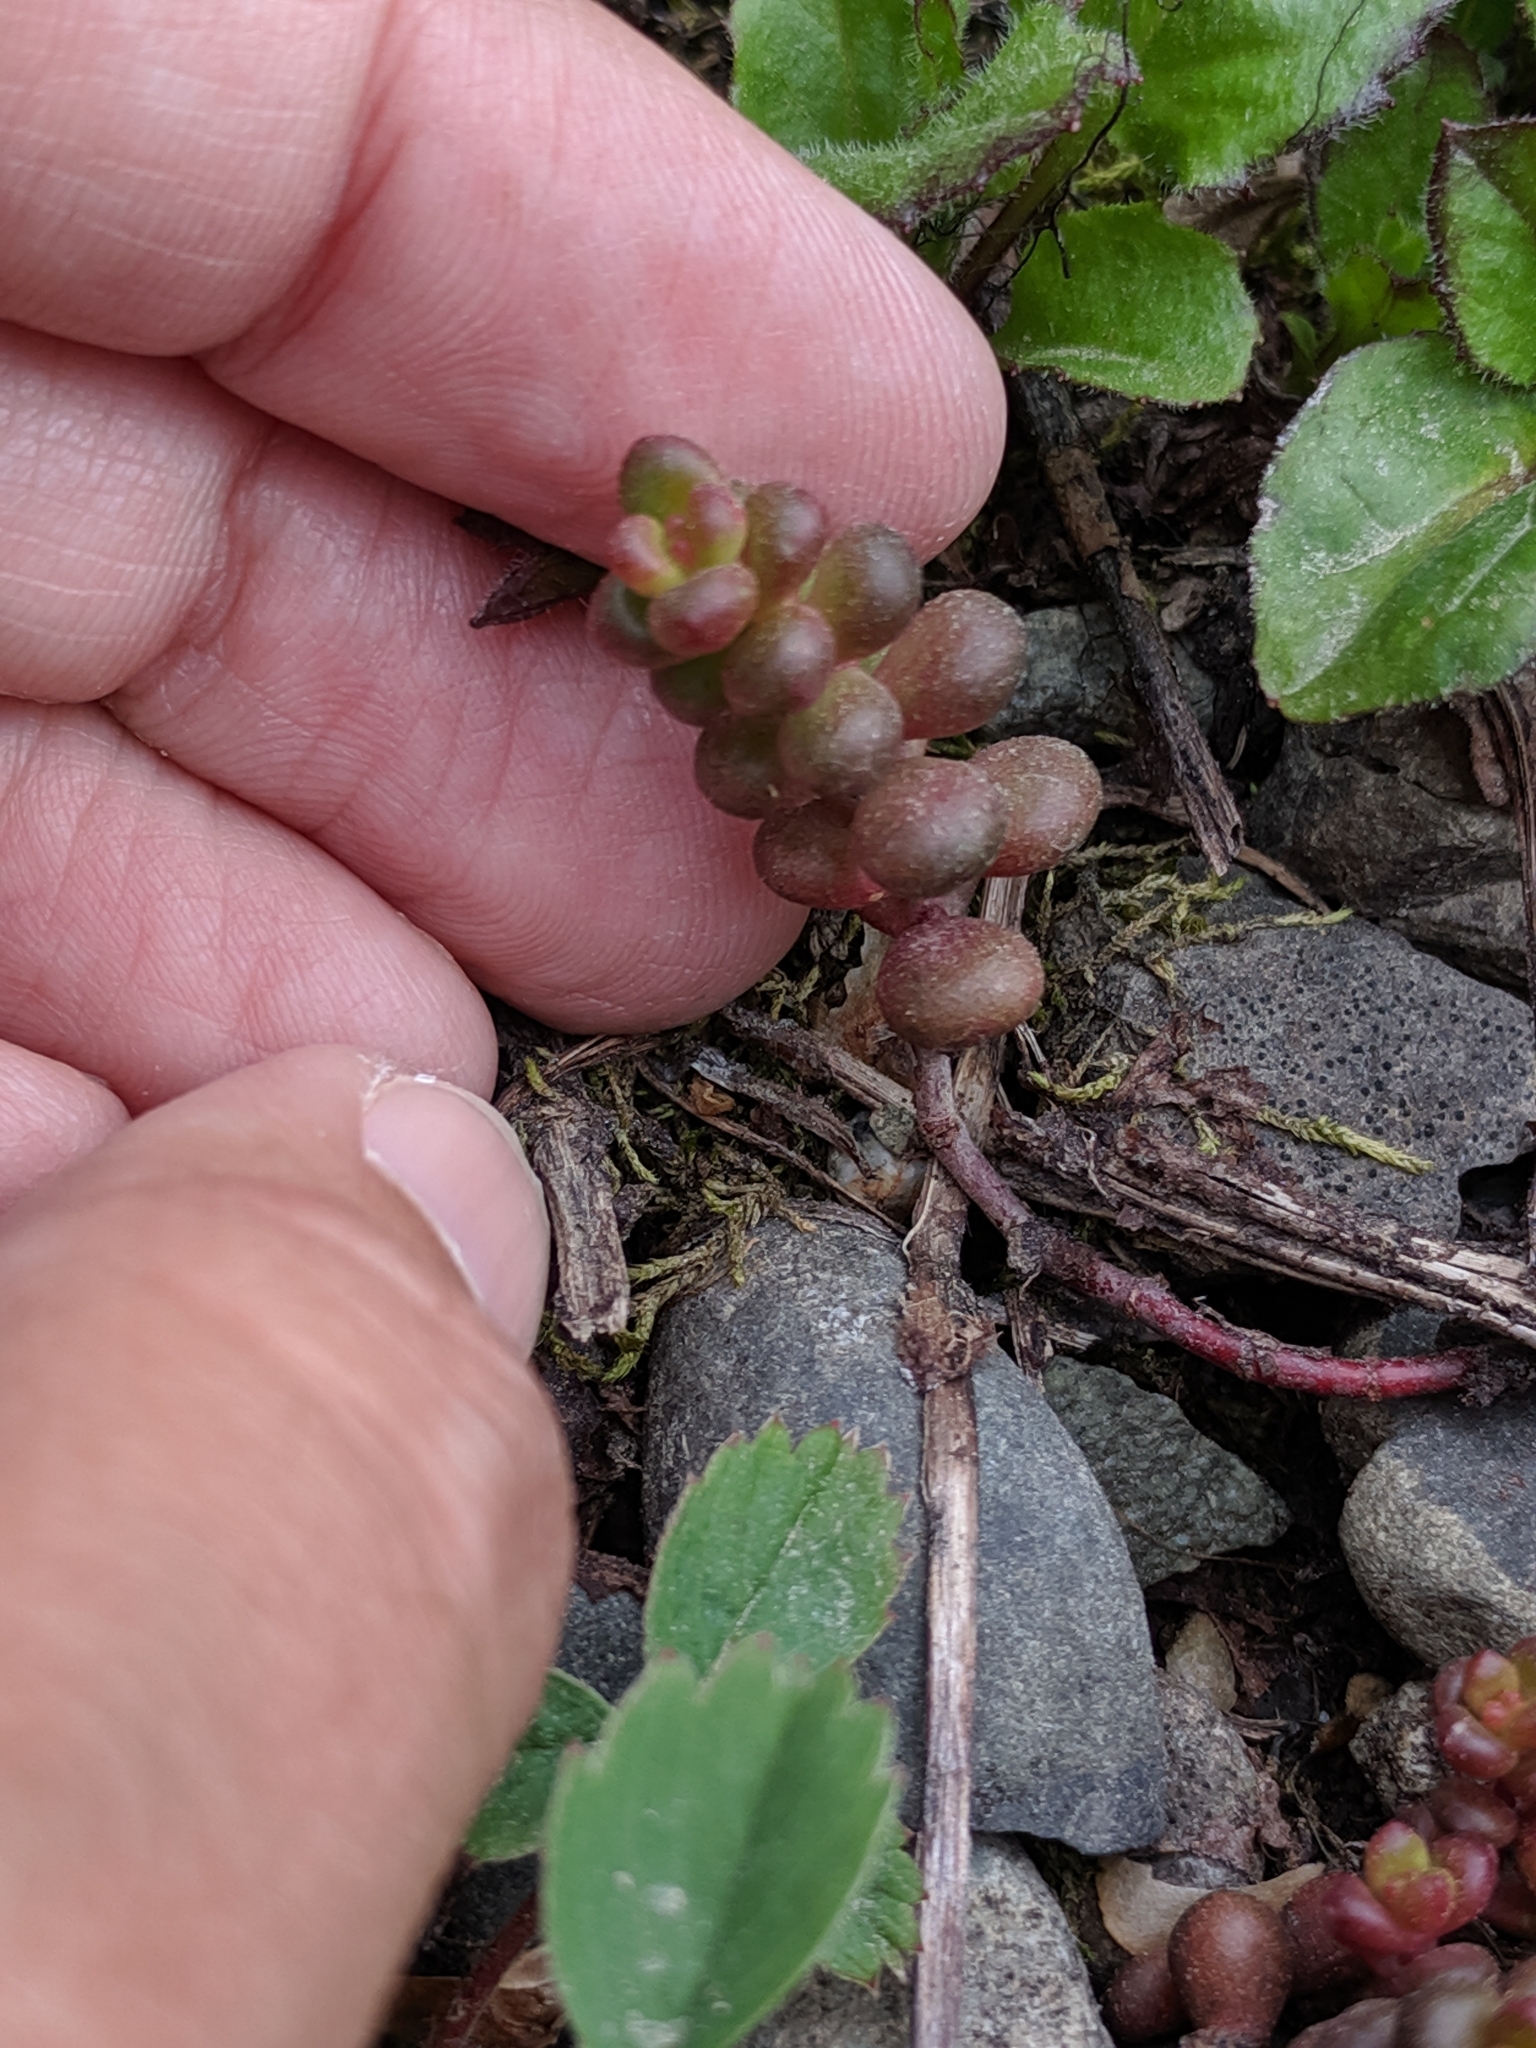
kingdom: Plantae
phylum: Tracheophyta
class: Magnoliopsida
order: Saxifragales
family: Crassulaceae
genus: Sedum
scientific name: Sedum divergens
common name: Cascade stonecrop
